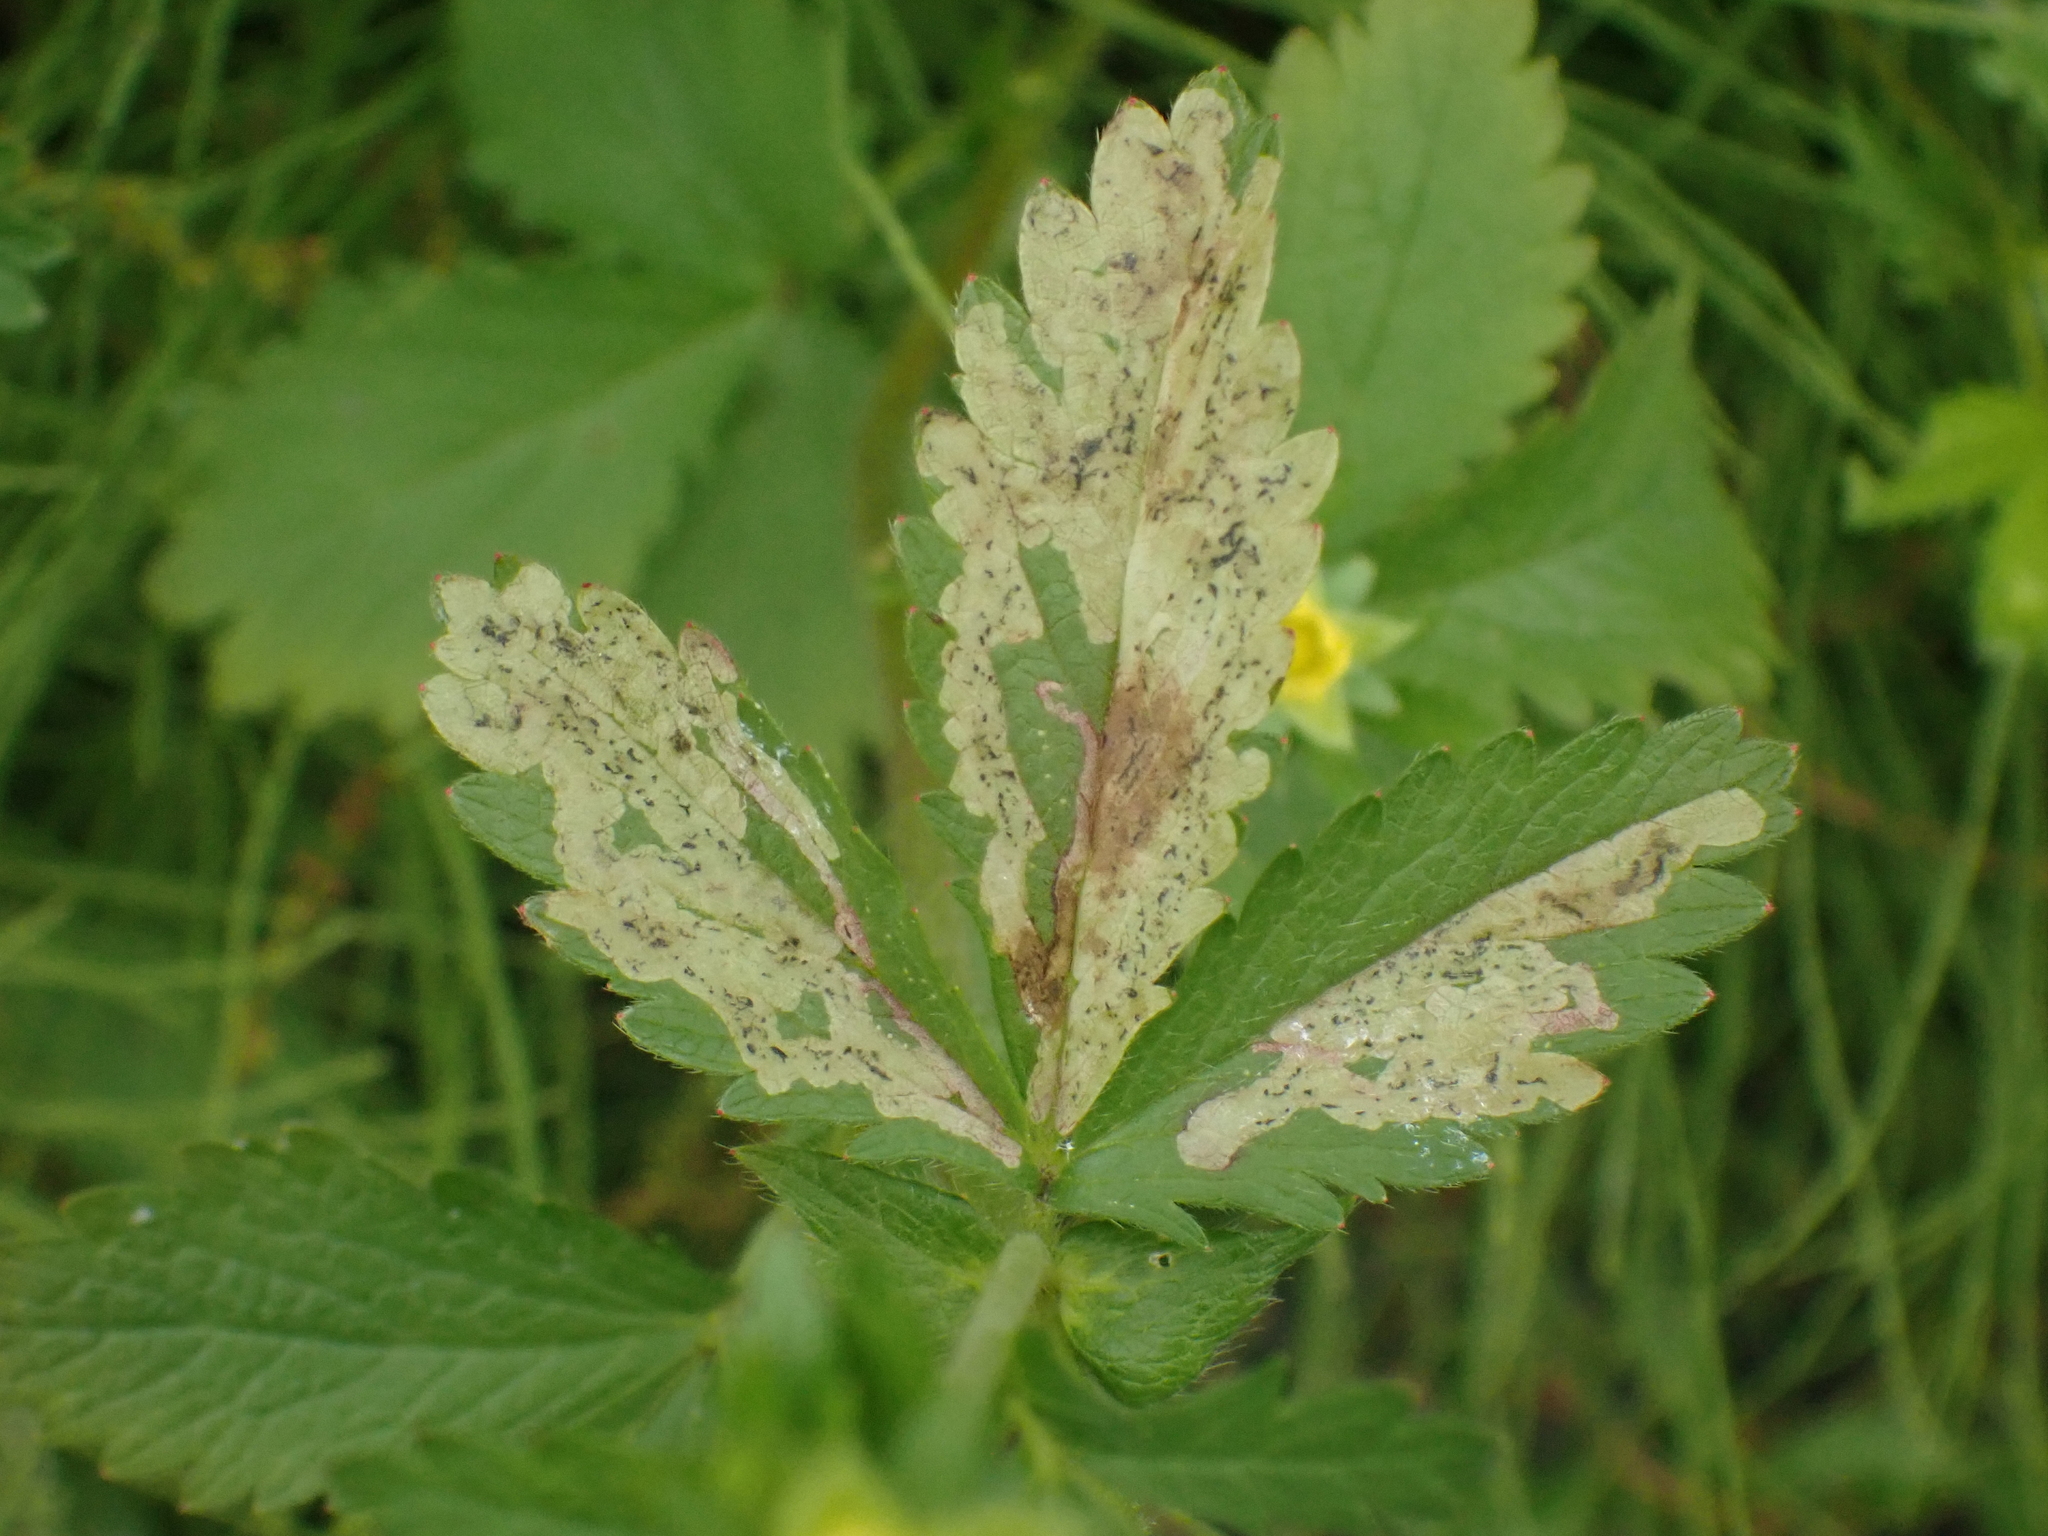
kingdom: Animalia
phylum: Arthropoda
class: Insecta
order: Hymenoptera
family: Tenthredinidae
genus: Fenella
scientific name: Fenella nigrita
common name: Tenthredid wasp
